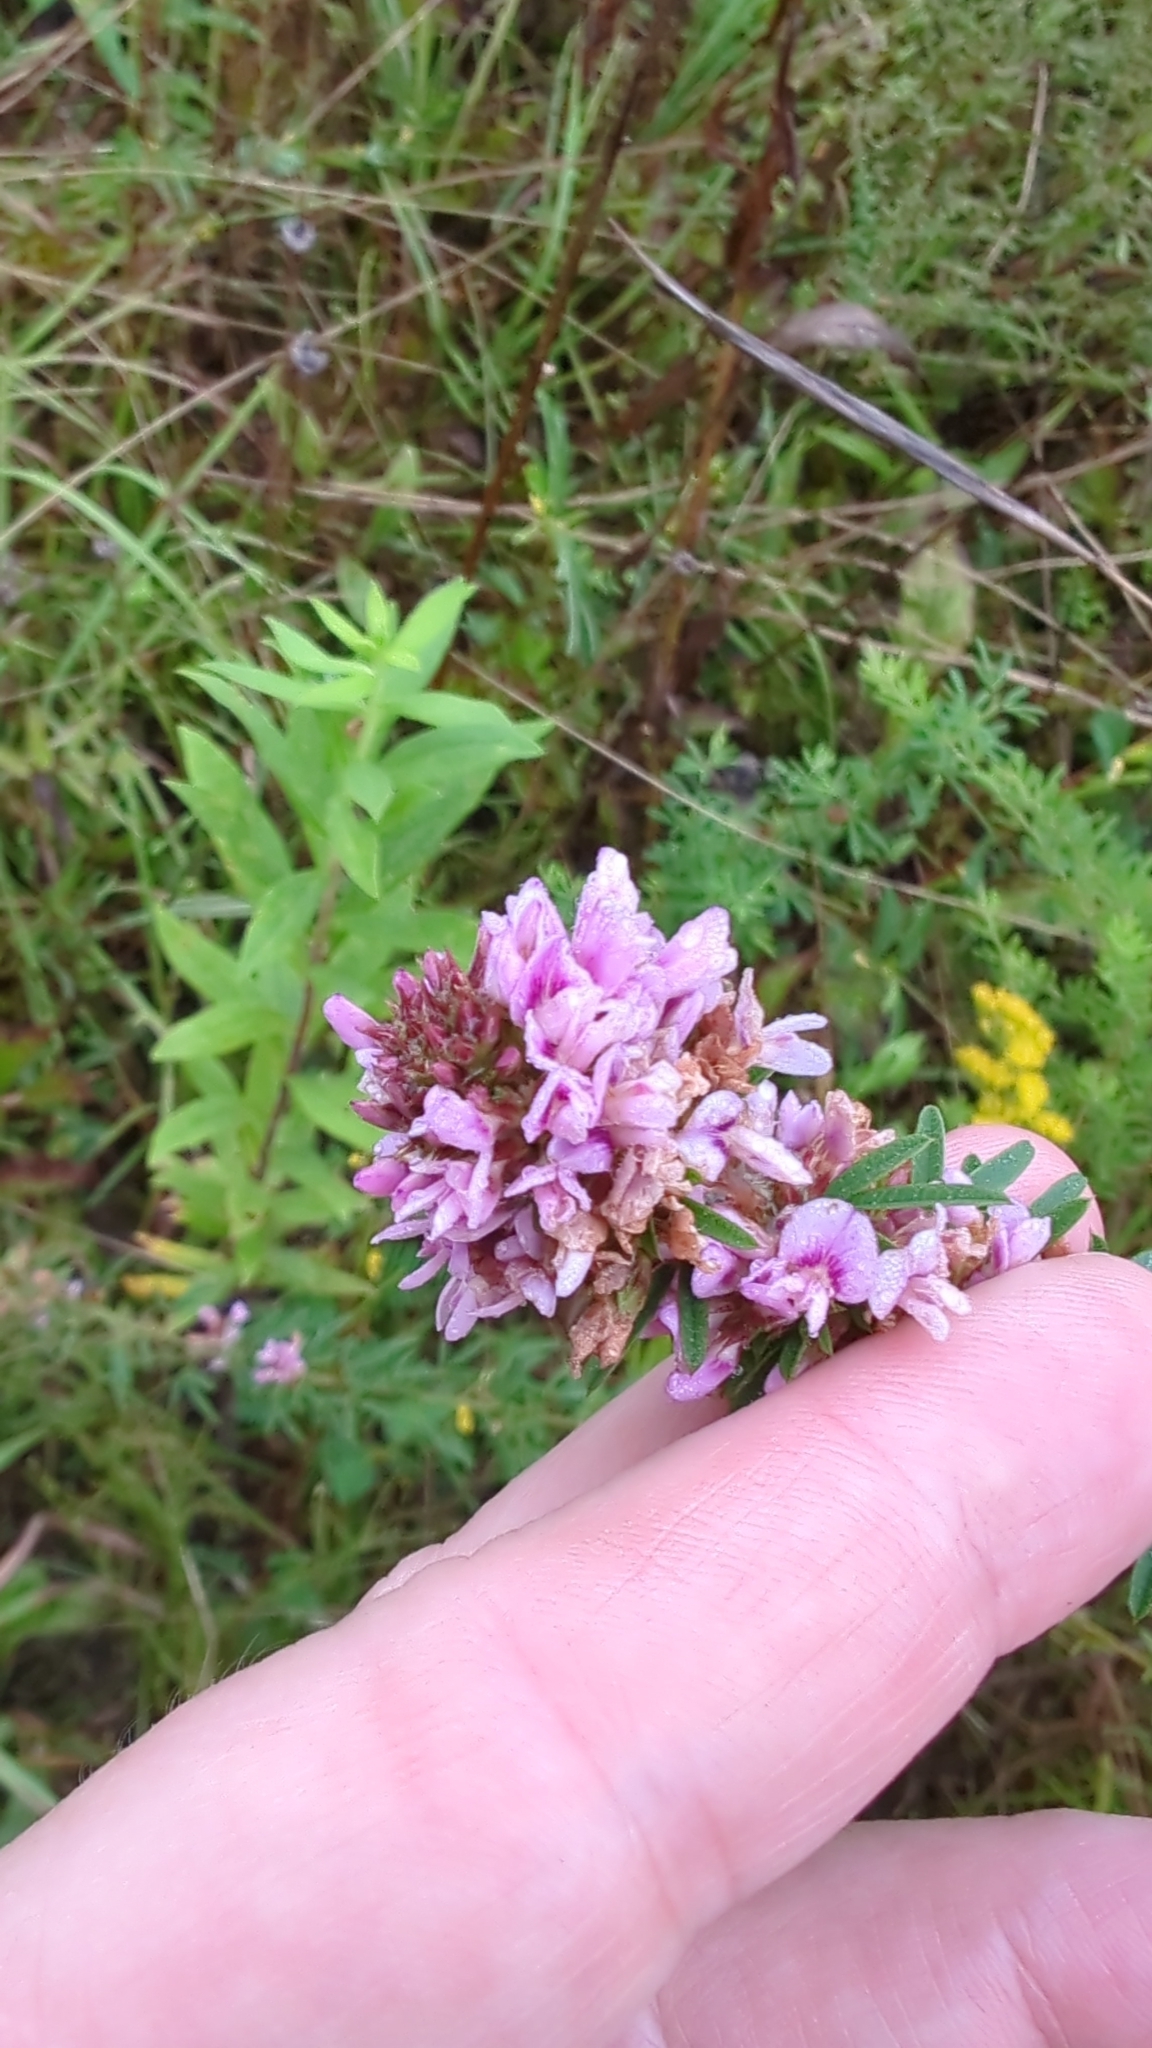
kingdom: Plantae
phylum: Tracheophyta
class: Magnoliopsida
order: Fabales
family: Fabaceae
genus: Lespedeza
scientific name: Lespedeza virginica
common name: Slender bush-clover
